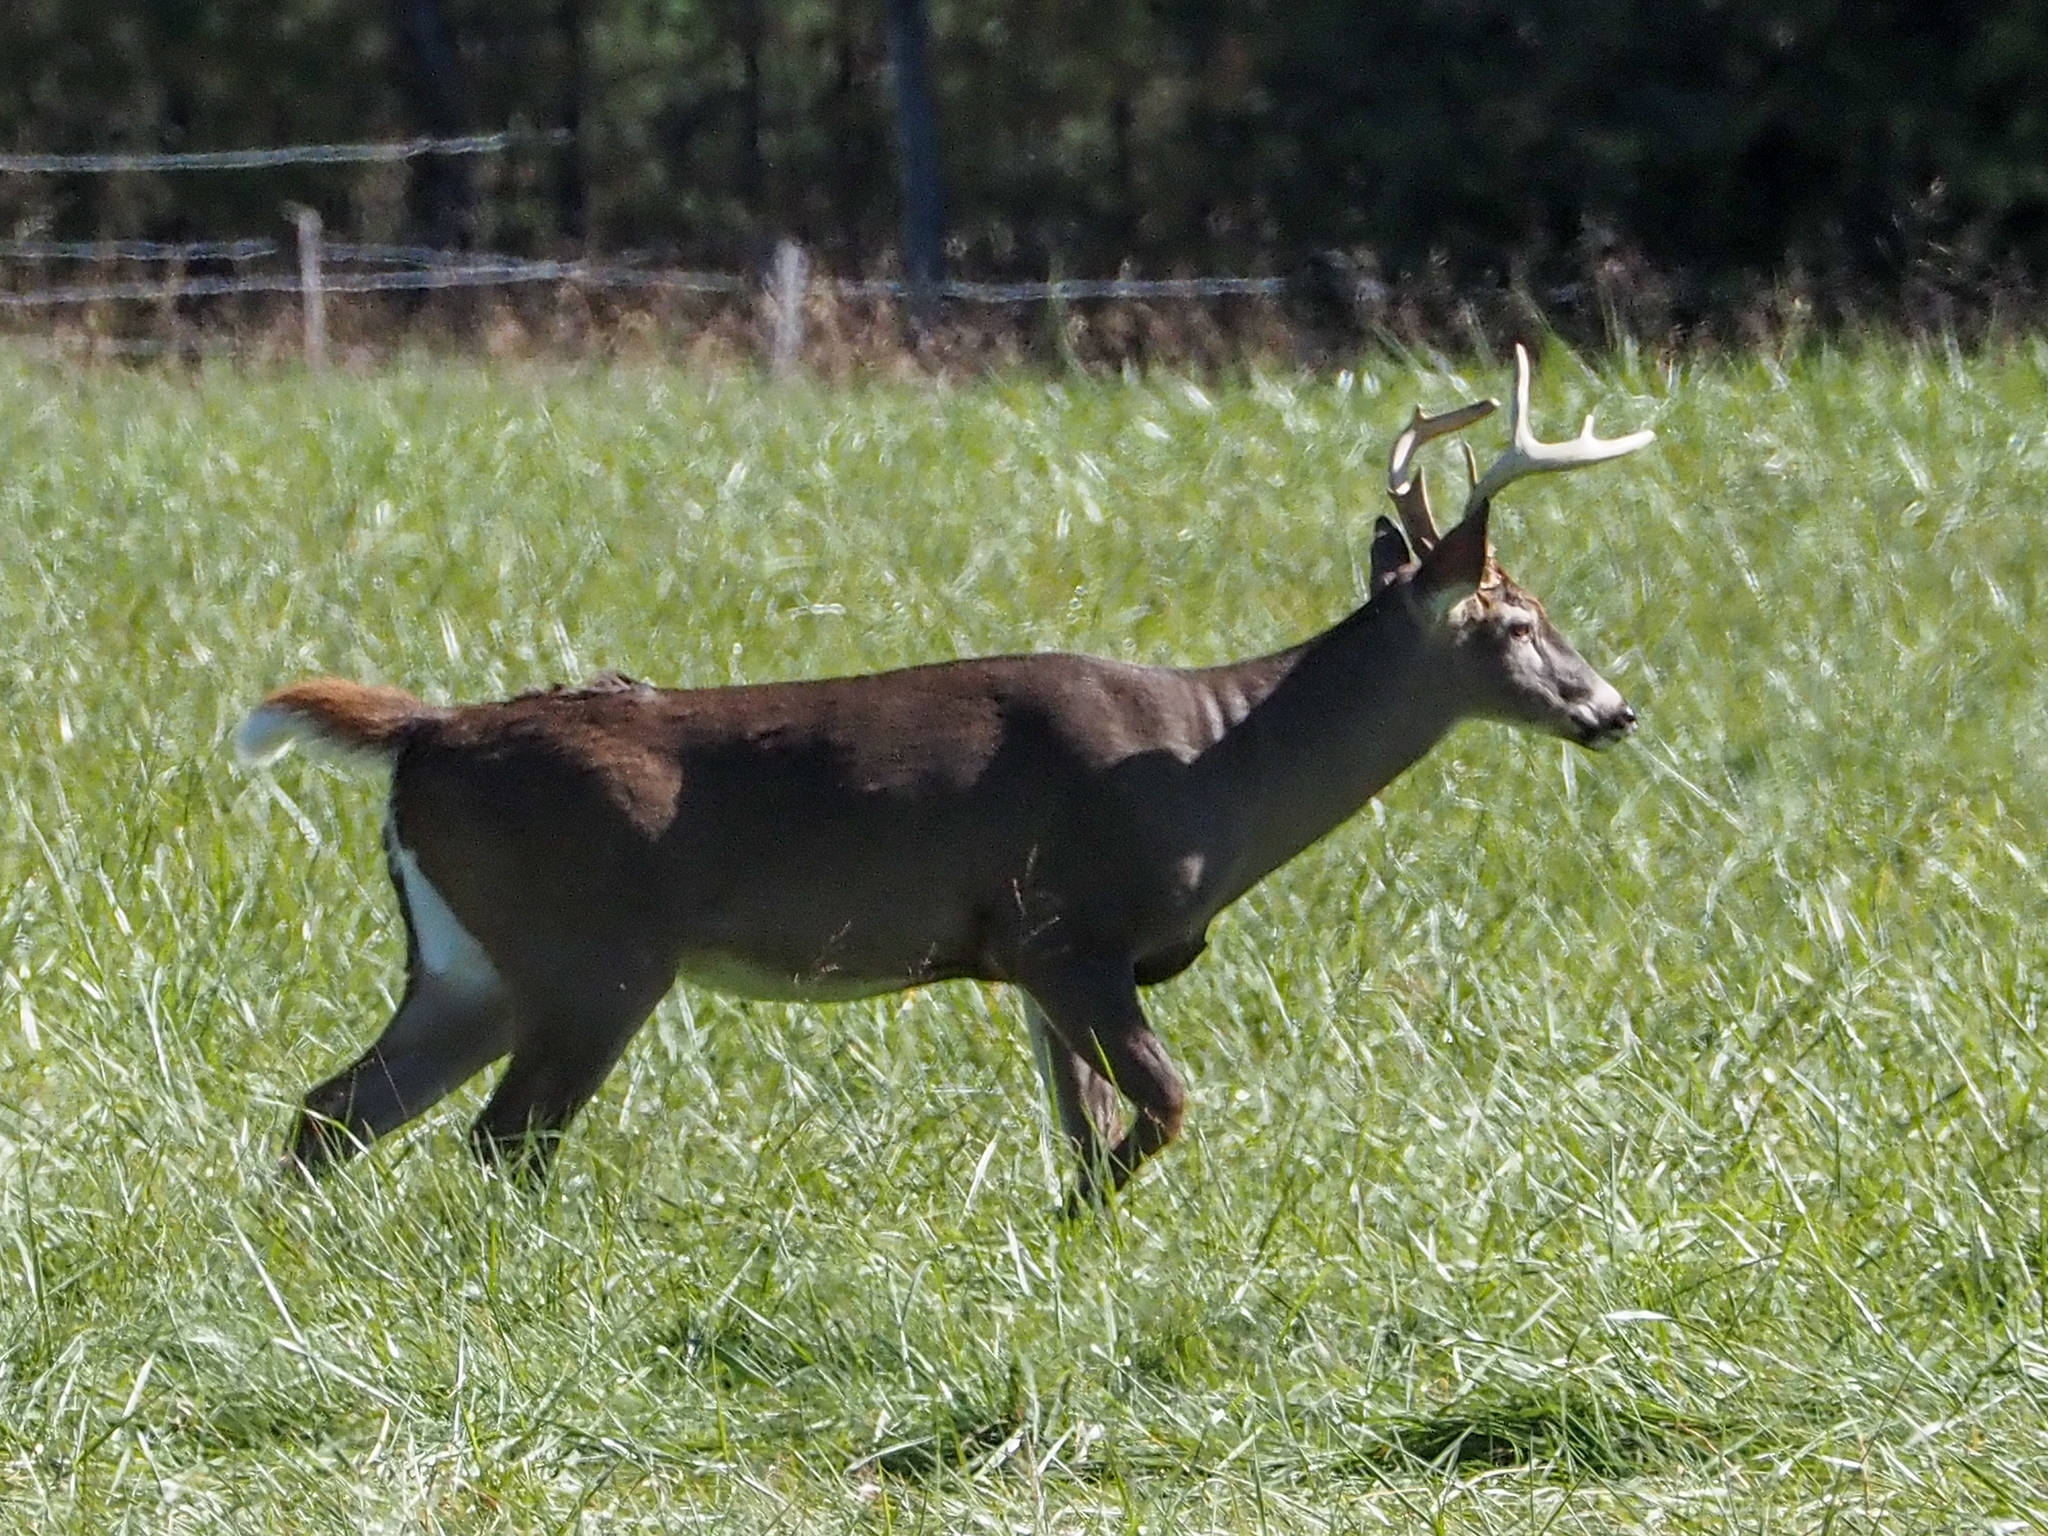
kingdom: Animalia
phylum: Chordata
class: Mammalia
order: Artiodactyla
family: Cervidae
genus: Odocoileus
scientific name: Odocoileus virginianus
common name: White-tailed deer
